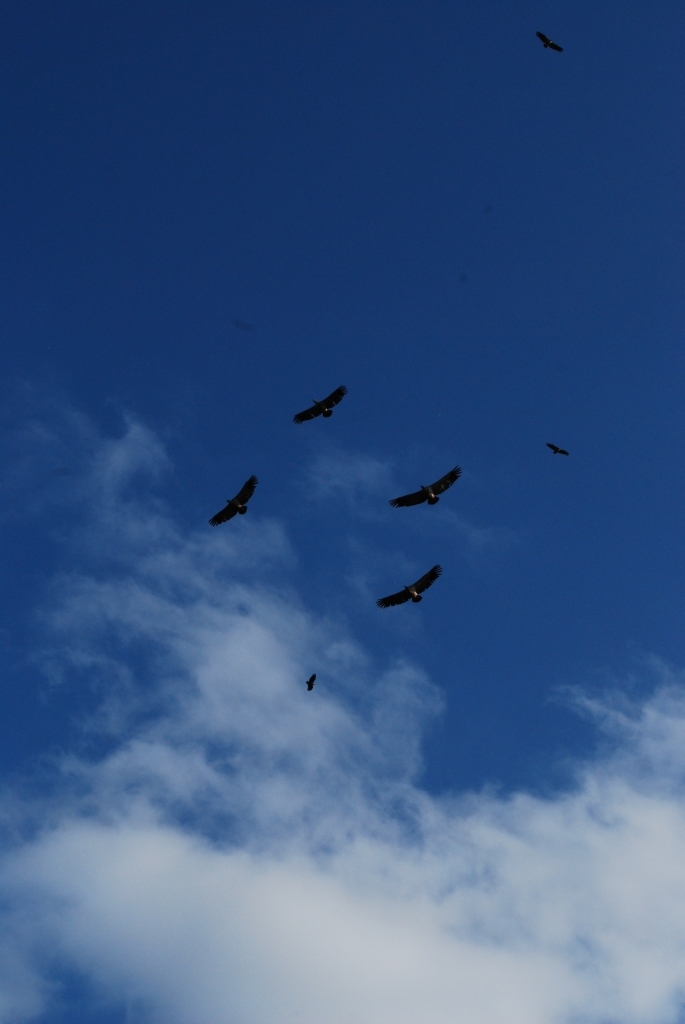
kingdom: Animalia
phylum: Chordata
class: Aves
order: Accipitriformes
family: Accipitridae
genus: Gyps
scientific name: Gyps coprotheres
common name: Cape vulture
